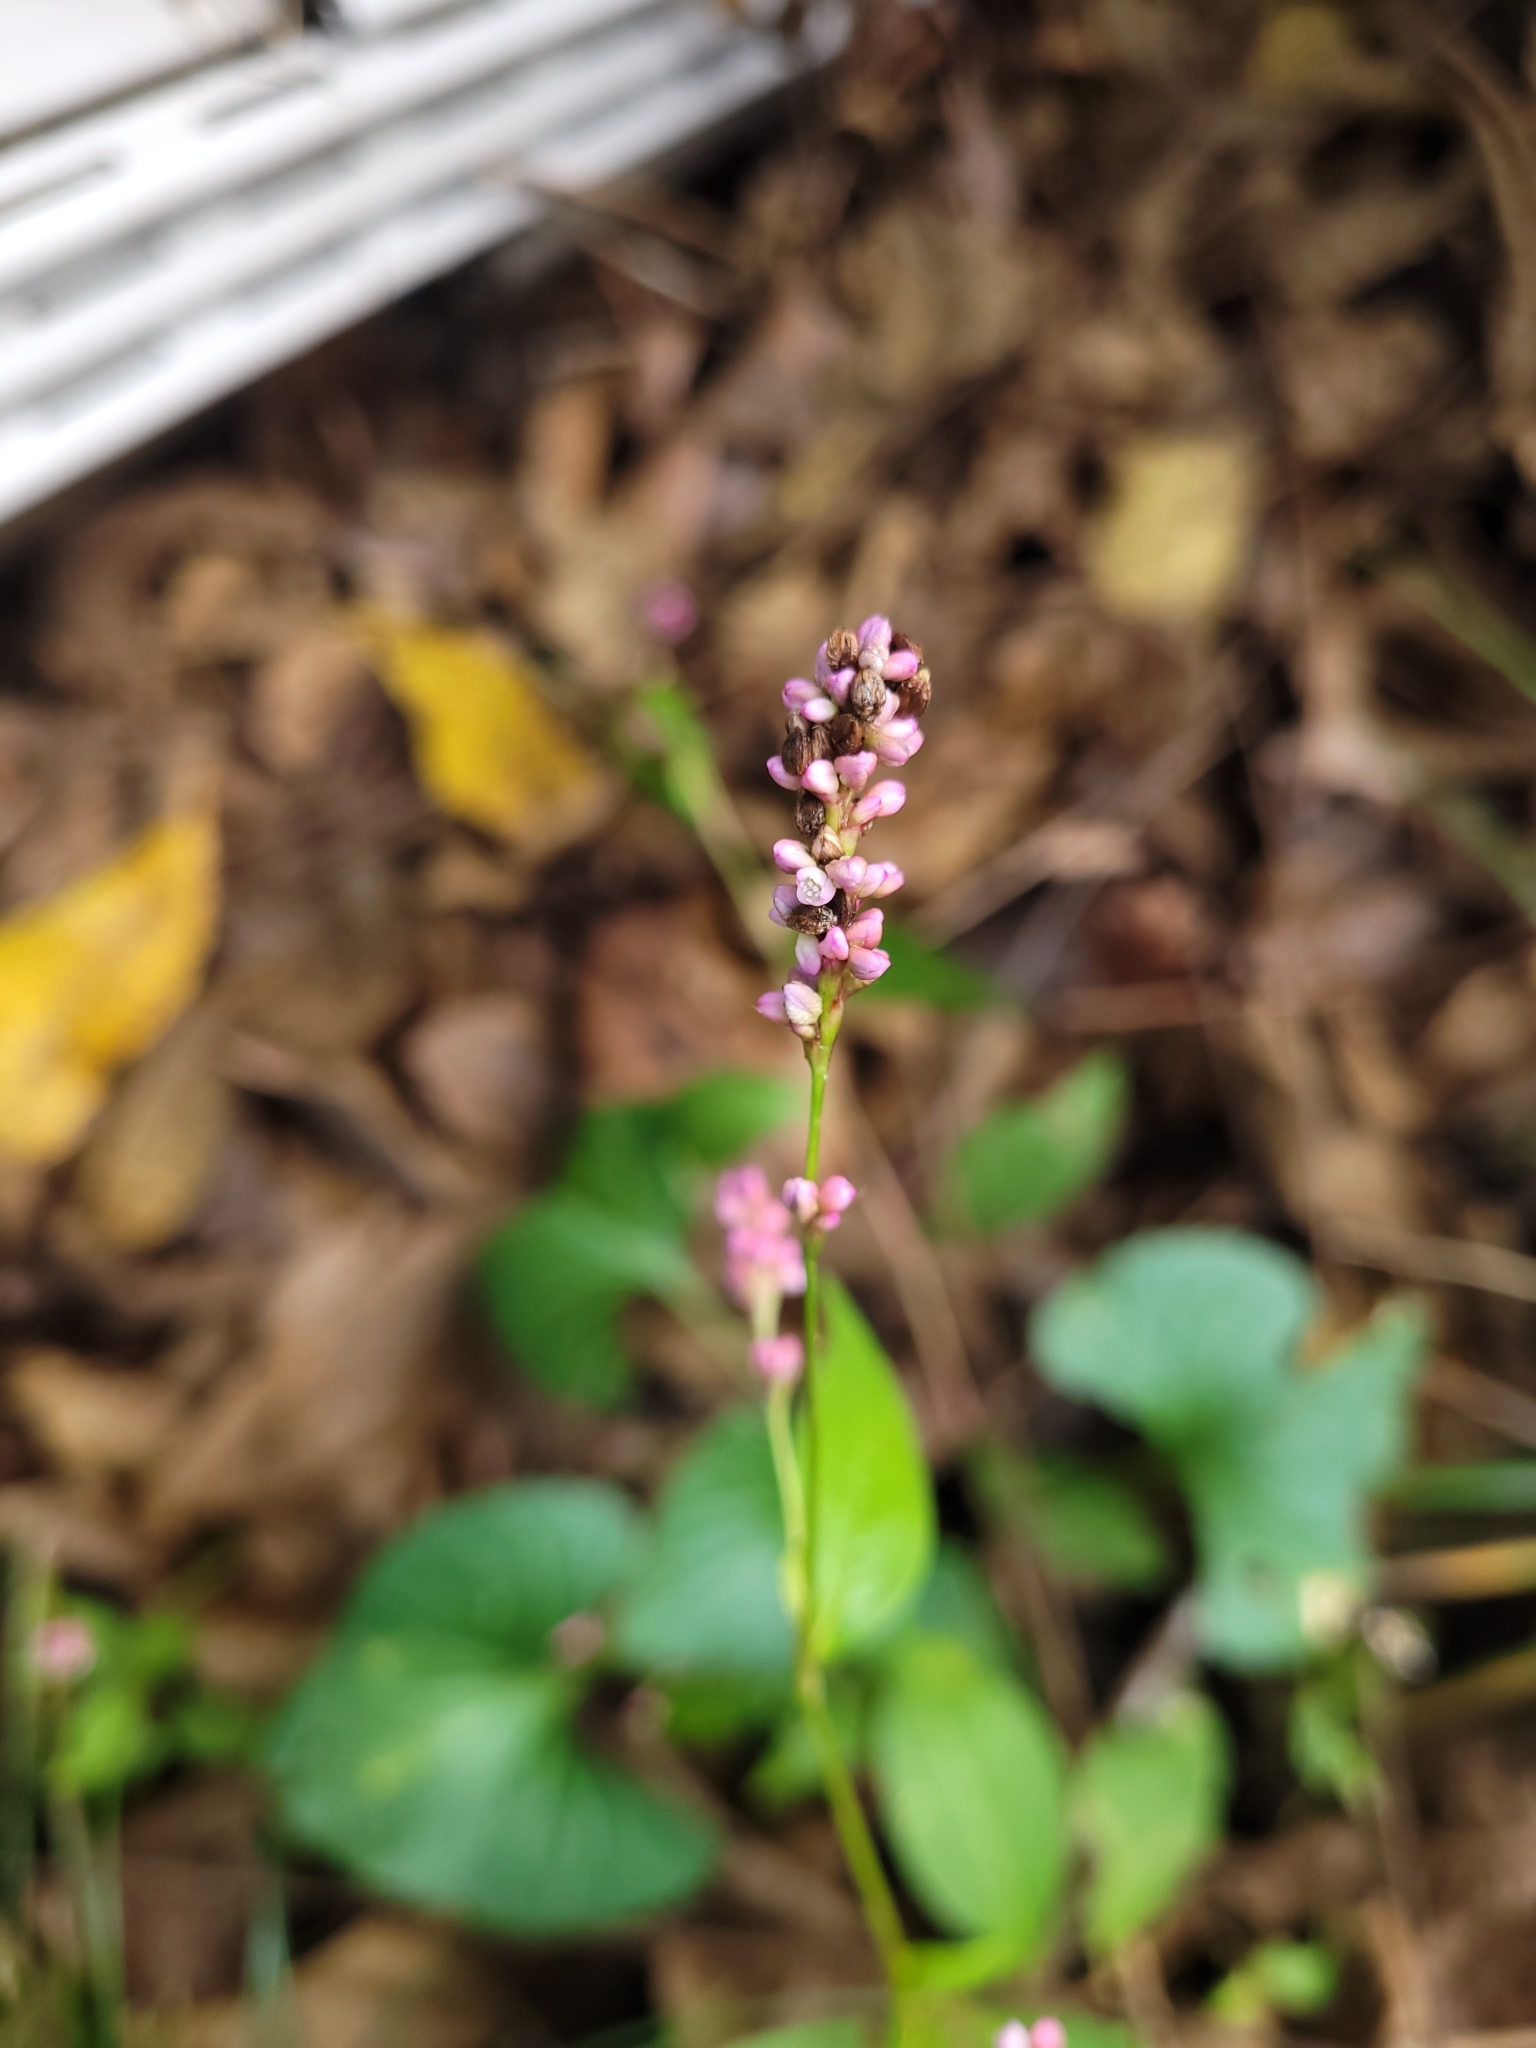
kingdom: Plantae
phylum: Tracheophyta
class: Magnoliopsida
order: Caryophyllales
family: Polygonaceae
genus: Persicaria
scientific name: Persicaria longiseta
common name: Bristly lady's-thumb
